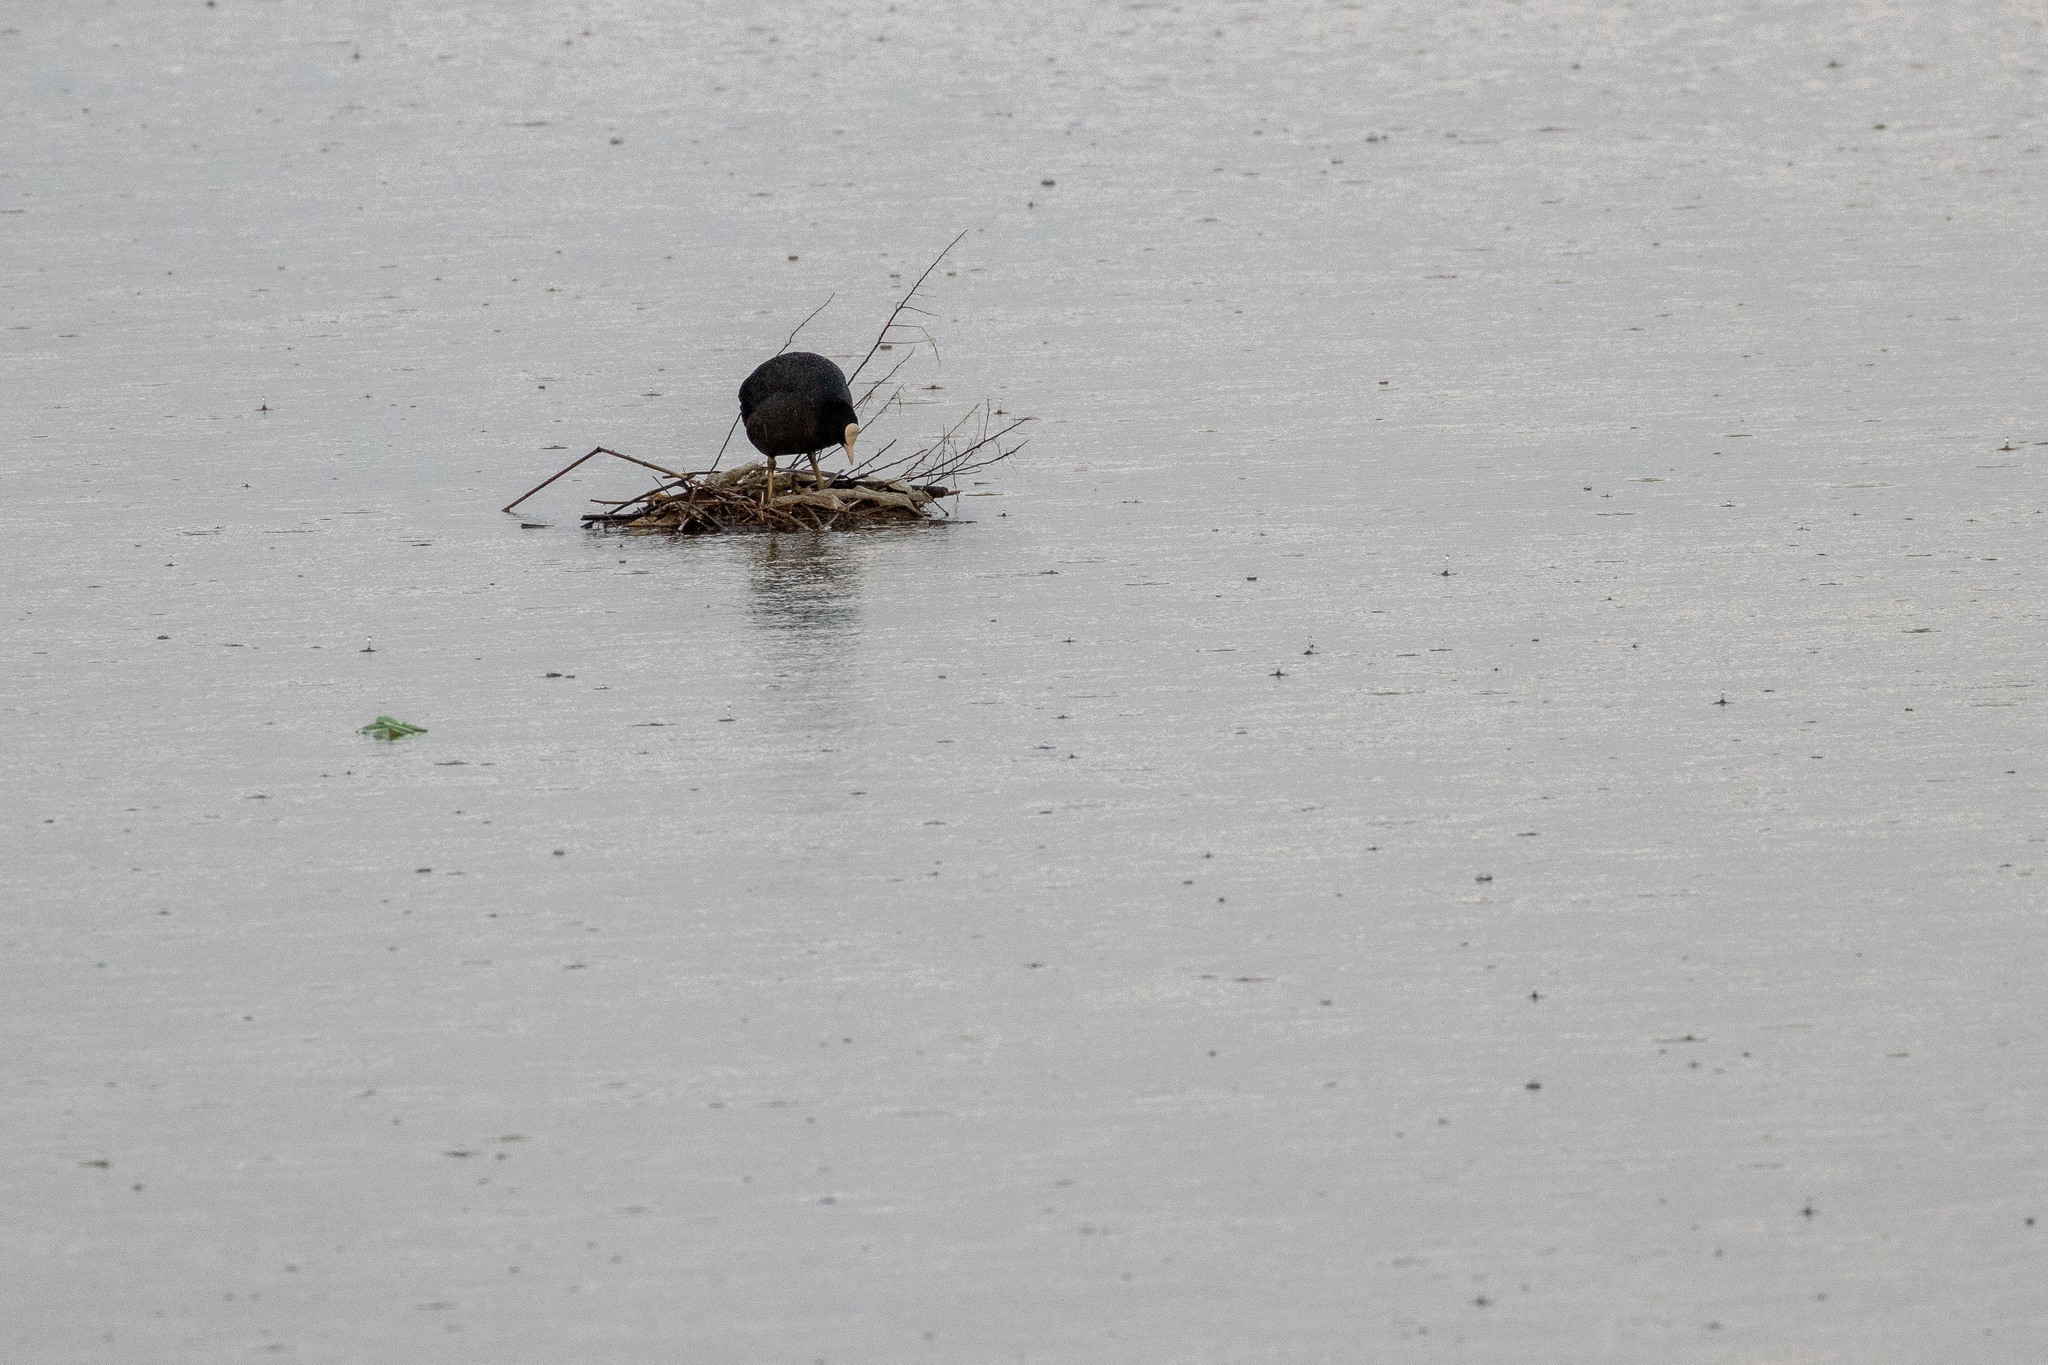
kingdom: Animalia
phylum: Chordata
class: Aves
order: Gruiformes
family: Rallidae
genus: Fulica
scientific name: Fulica atra
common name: Eurasian coot
